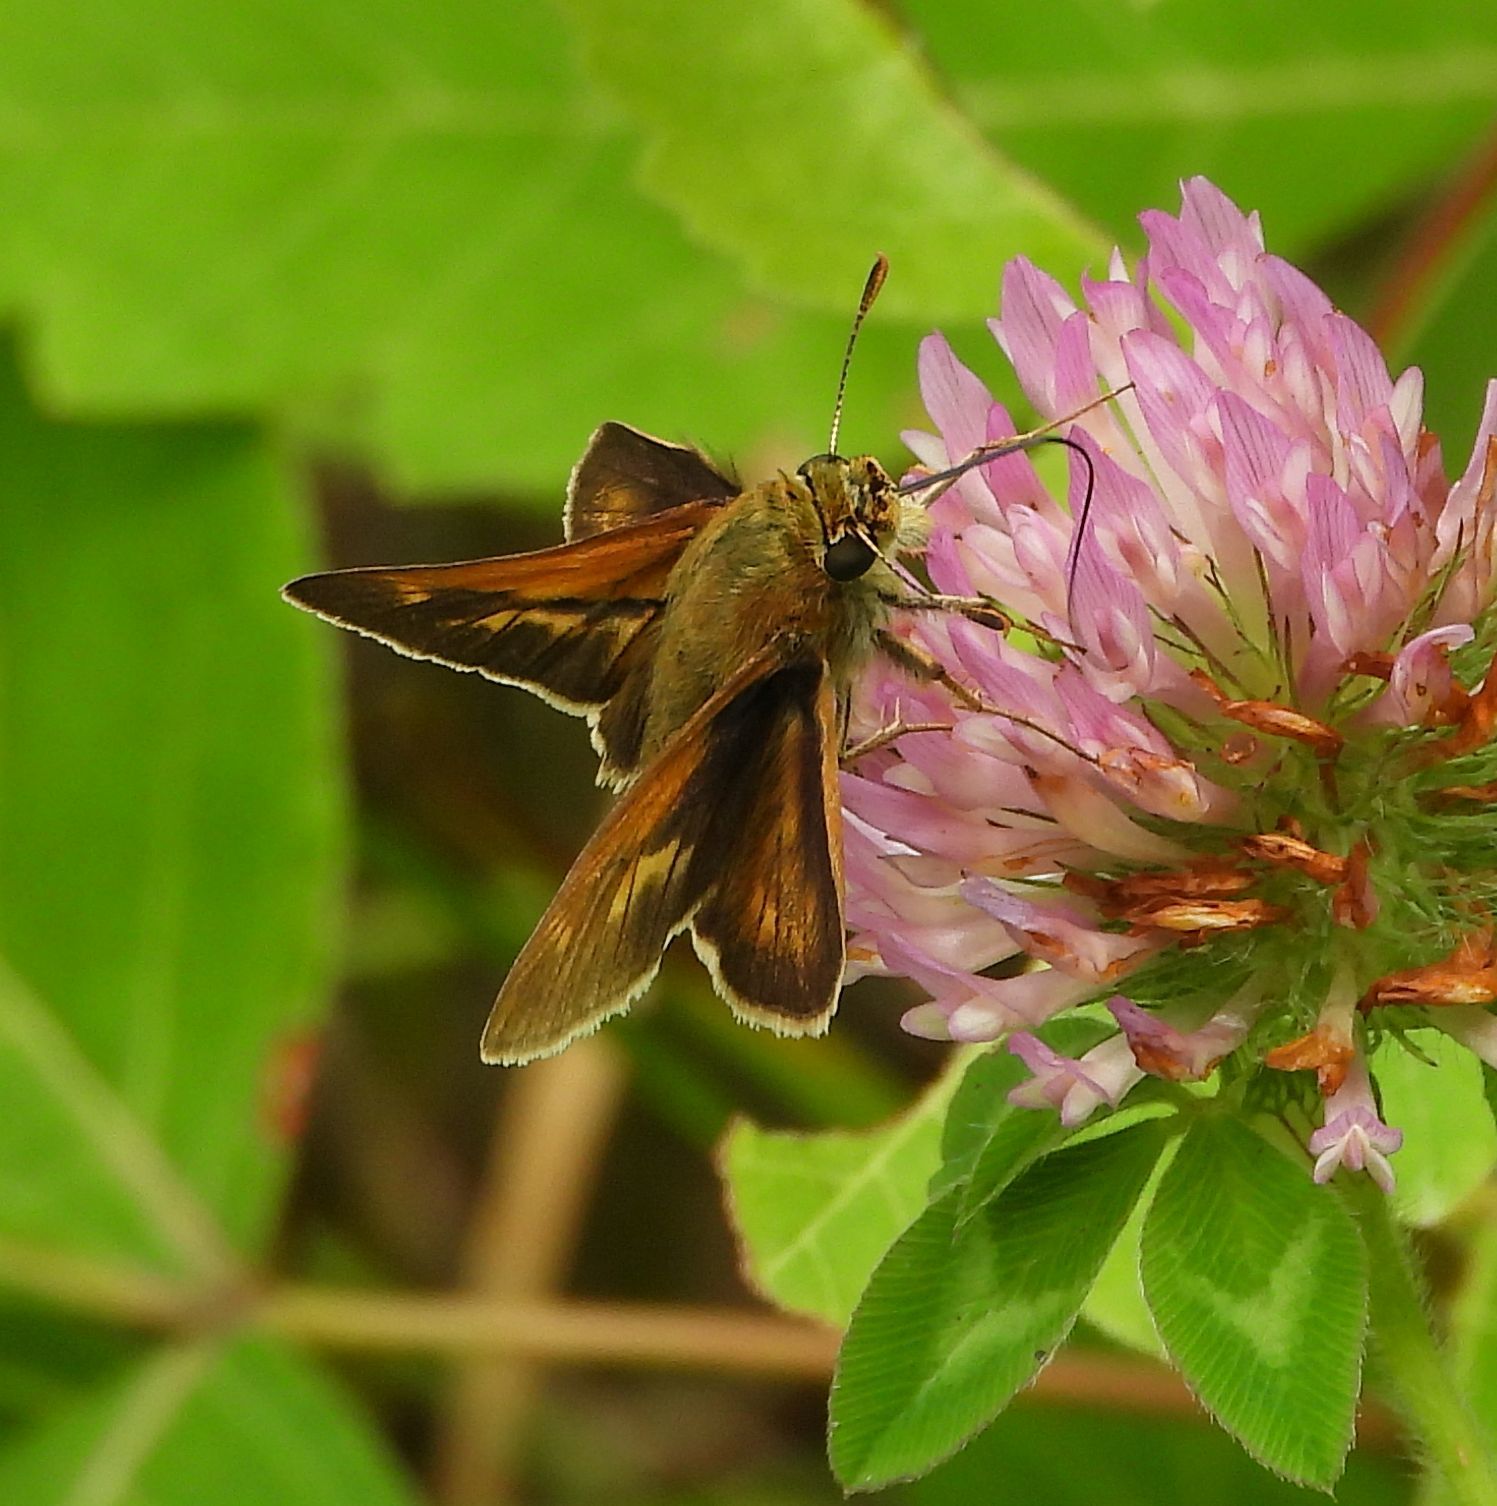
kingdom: Animalia
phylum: Arthropoda
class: Insecta
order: Lepidoptera
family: Hesperiidae
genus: Polites
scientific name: Polites origenes
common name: Crossline skipper
